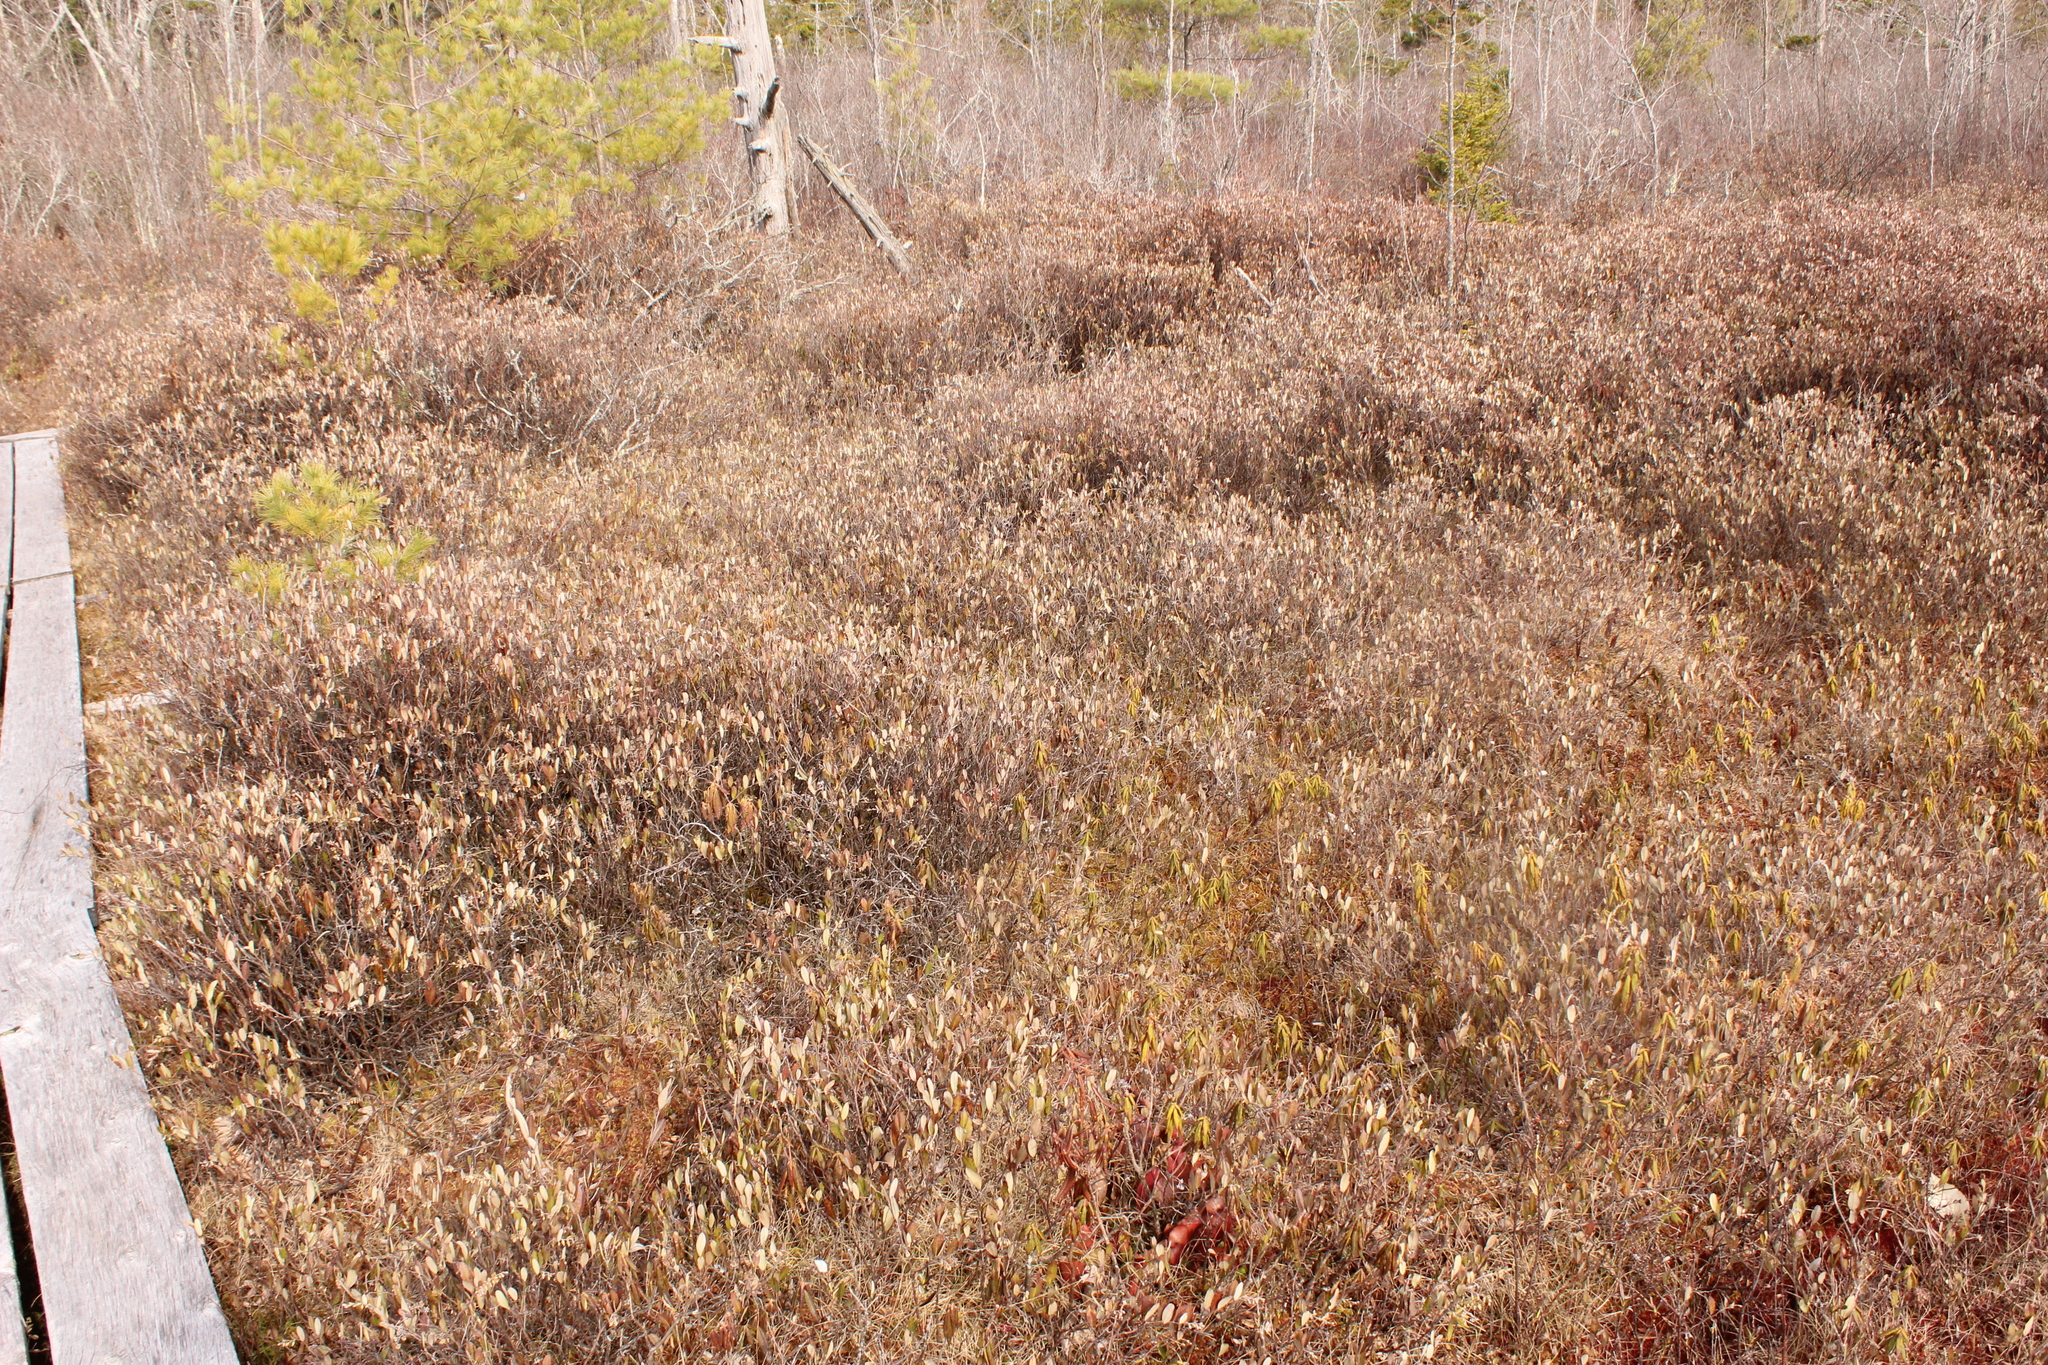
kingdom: Plantae
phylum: Tracheophyta
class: Magnoliopsida
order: Ericales
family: Ericaceae
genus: Chamaedaphne
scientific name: Chamaedaphne calyculata
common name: Leatherleaf
